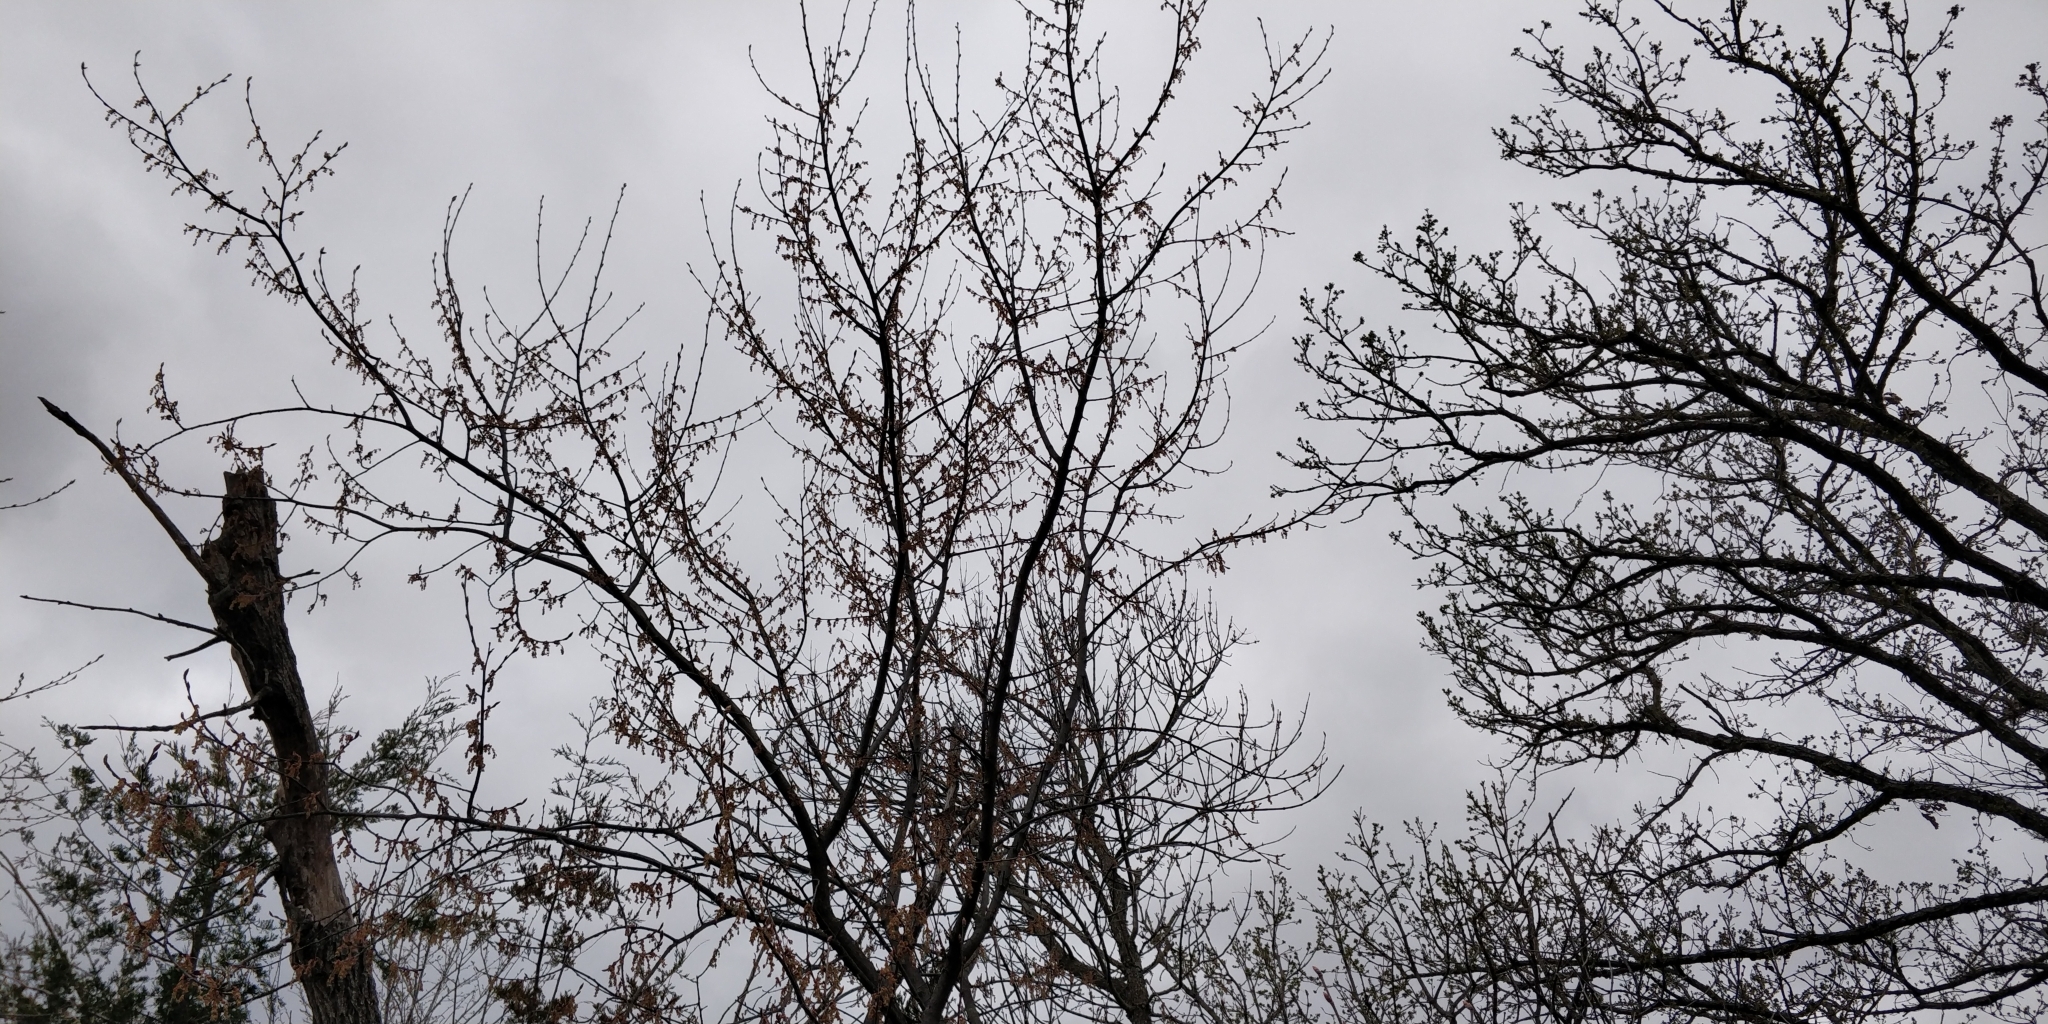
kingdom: Plantae
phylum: Tracheophyta
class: Magnoliopsida
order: Rosales
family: Ulmaceae
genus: Ulmus
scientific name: Ulmus thomasii
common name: Rock elm
